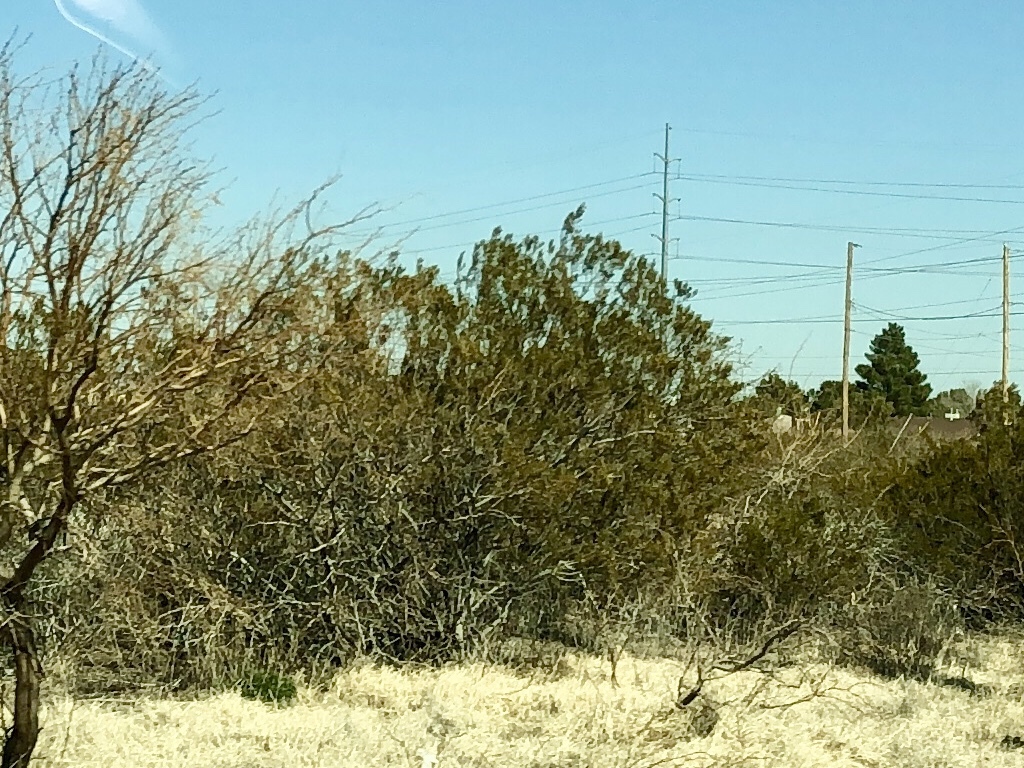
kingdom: Plantae
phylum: Tracheophyta
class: Magnoliopsida
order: Zygophyllales
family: Zygophyllaceae
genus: Larrea
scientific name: Larrea tridentata
